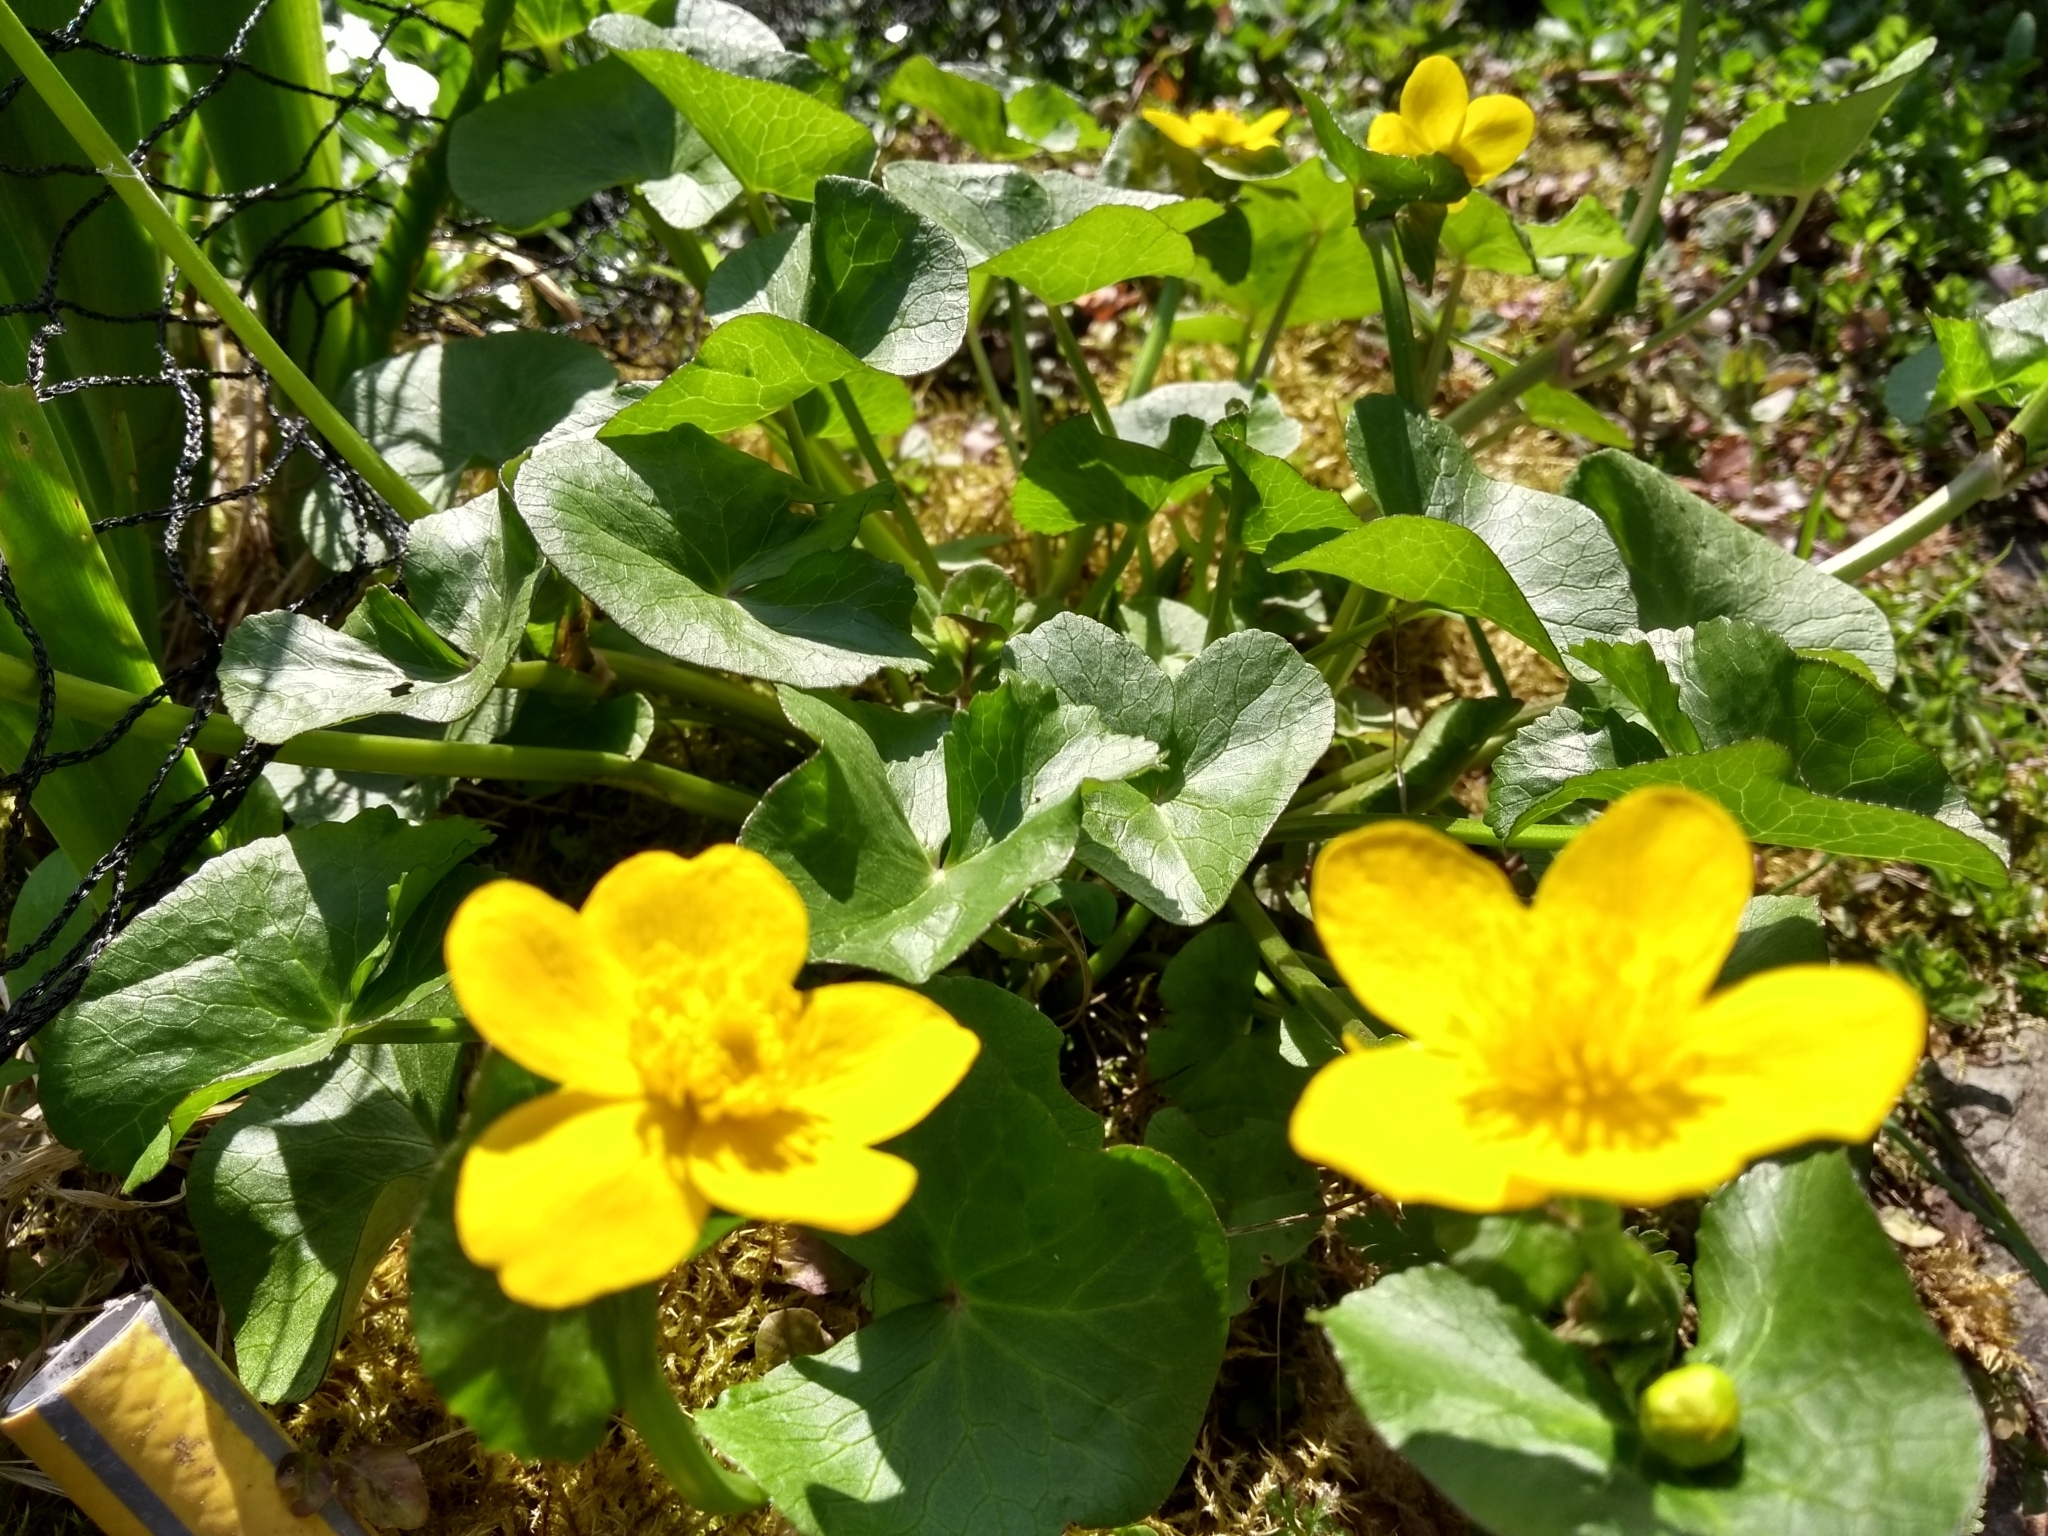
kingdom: Plantae
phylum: Tracheophyta
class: Magnoliopsida
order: Ranunculales
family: Ranunculaceae
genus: Caltha
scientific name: Caltha palustris
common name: Marsh marigold
